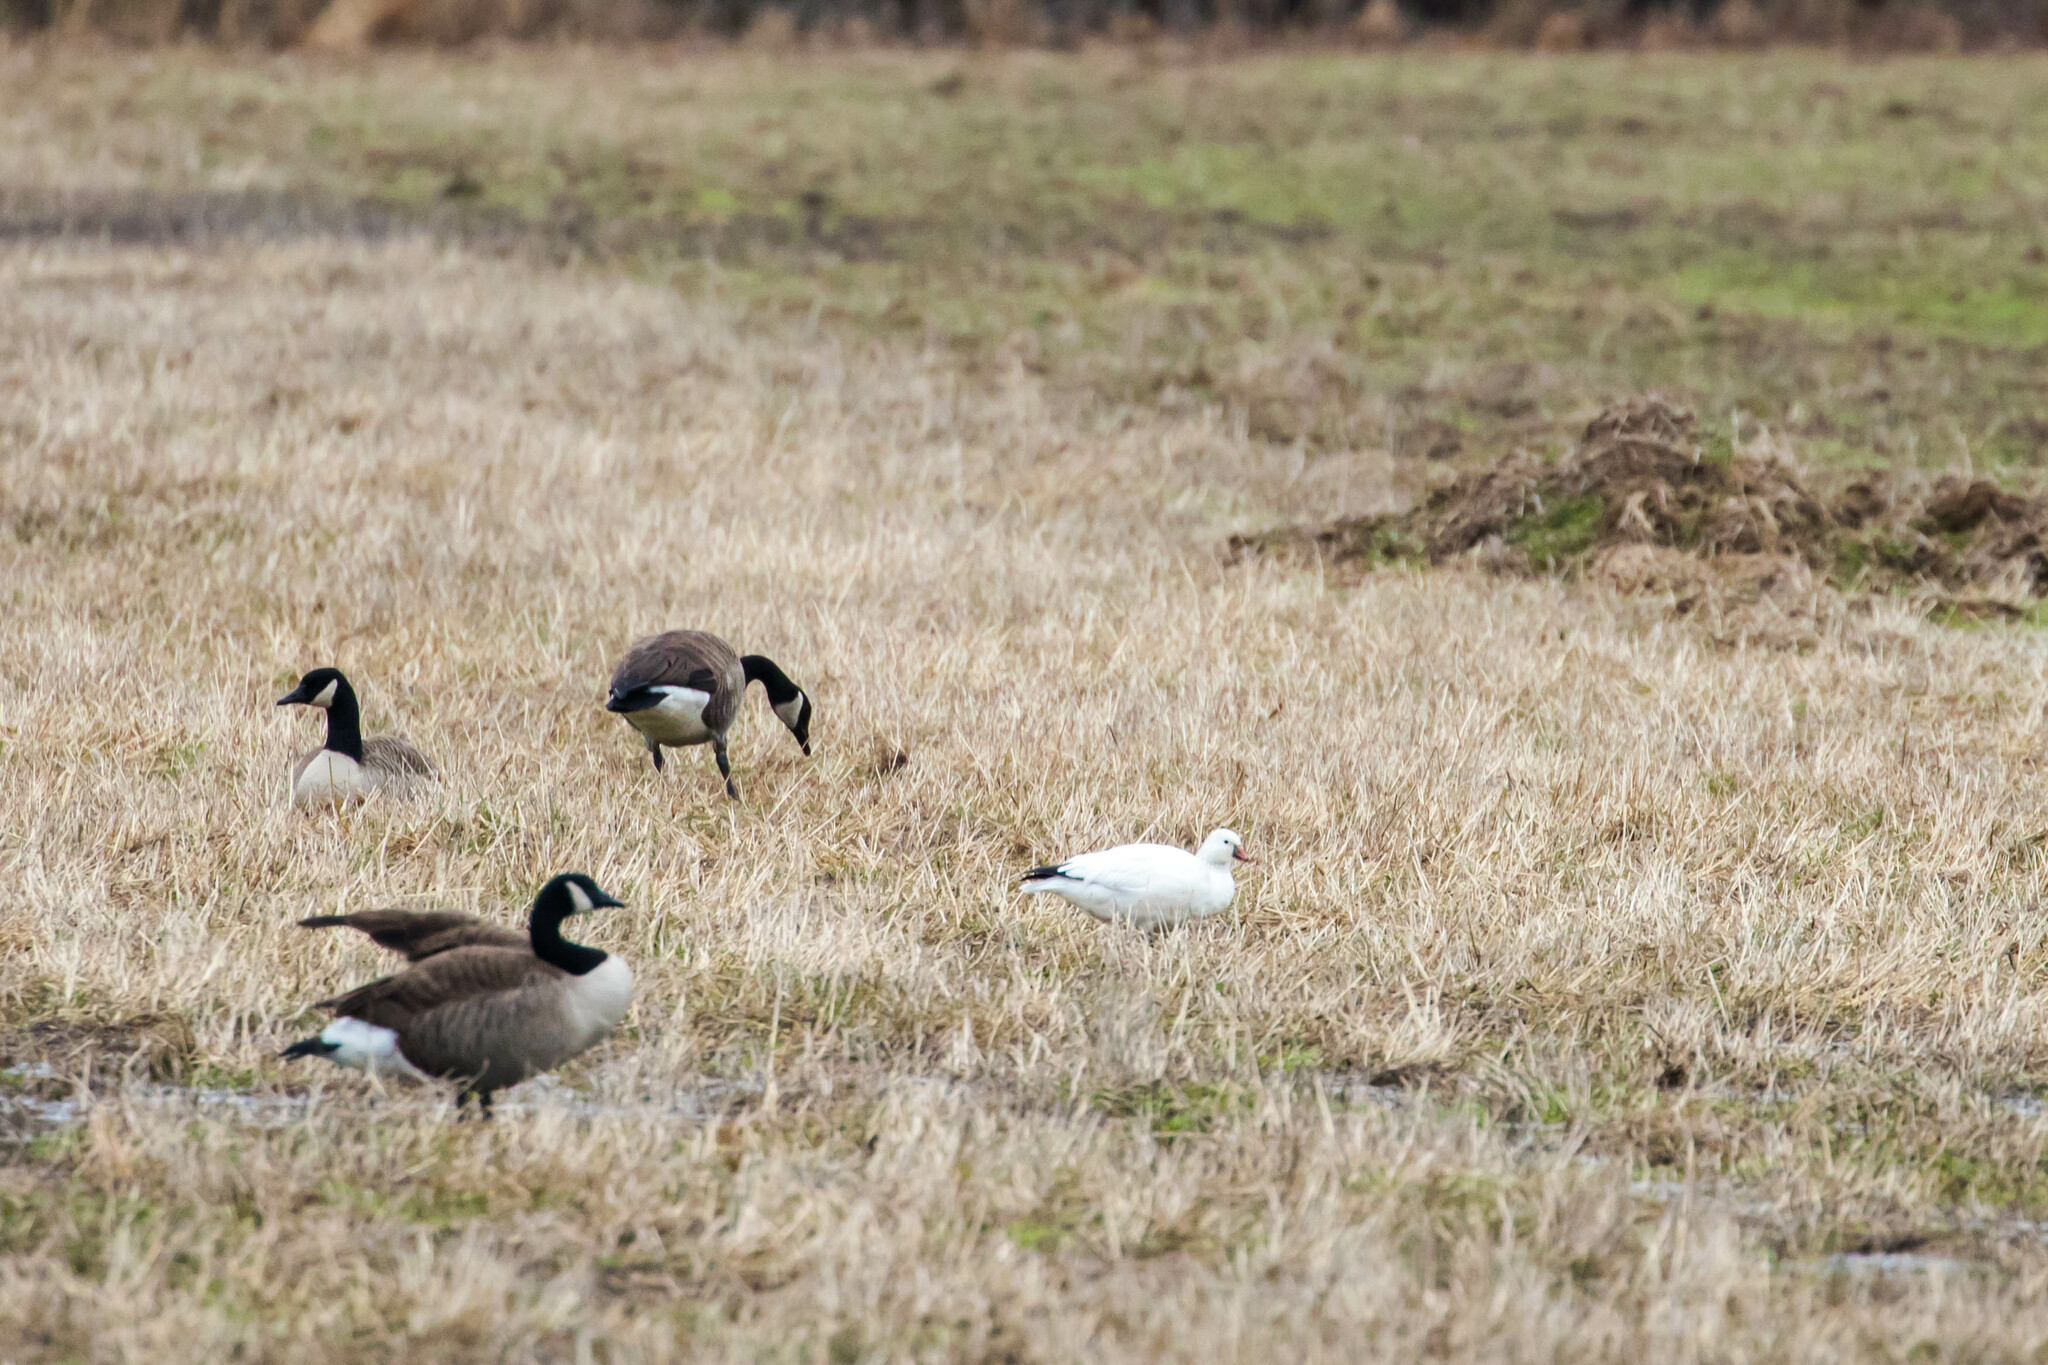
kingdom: Animalia
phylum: Chordata
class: Aves
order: Anseriformes
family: Anatidae
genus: Anser
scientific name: Anser rossii
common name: Ross's goose
